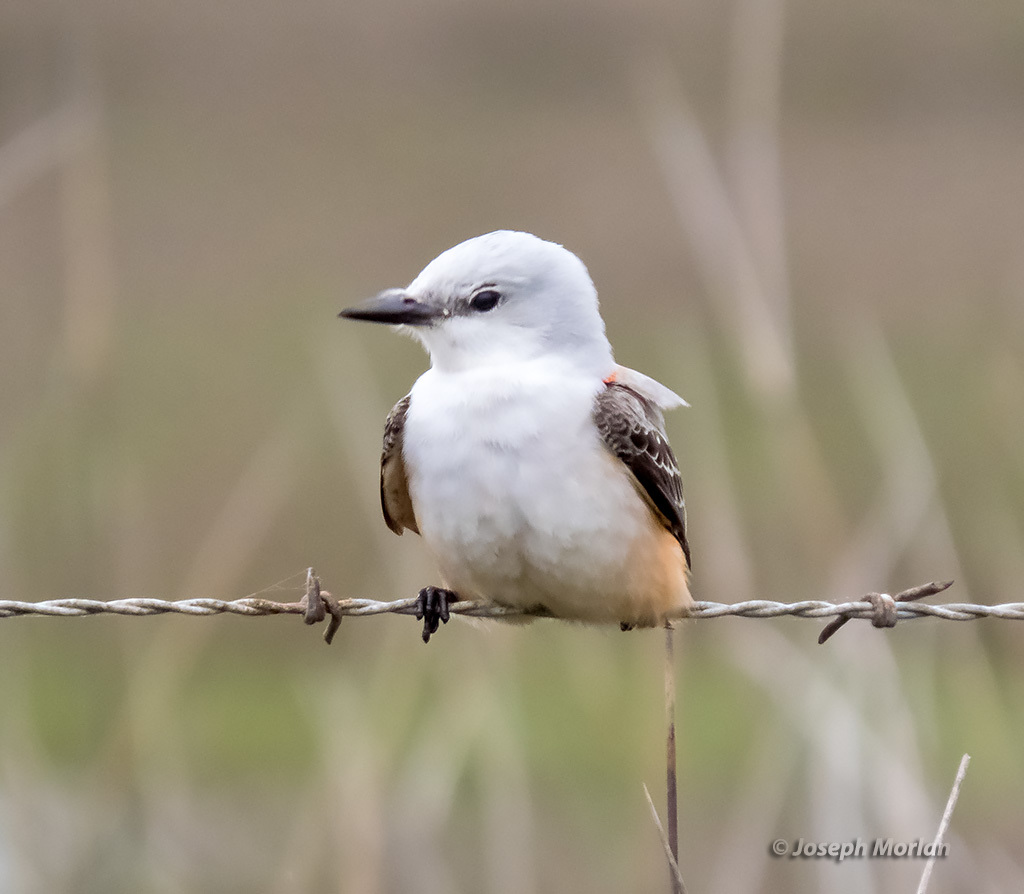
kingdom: Animalia
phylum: Chordata
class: Aves
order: Passeriformes
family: Tyrannidae
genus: Tyrannus
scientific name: Tyrannus forficatus
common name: Scissor-tailed flycatcher
